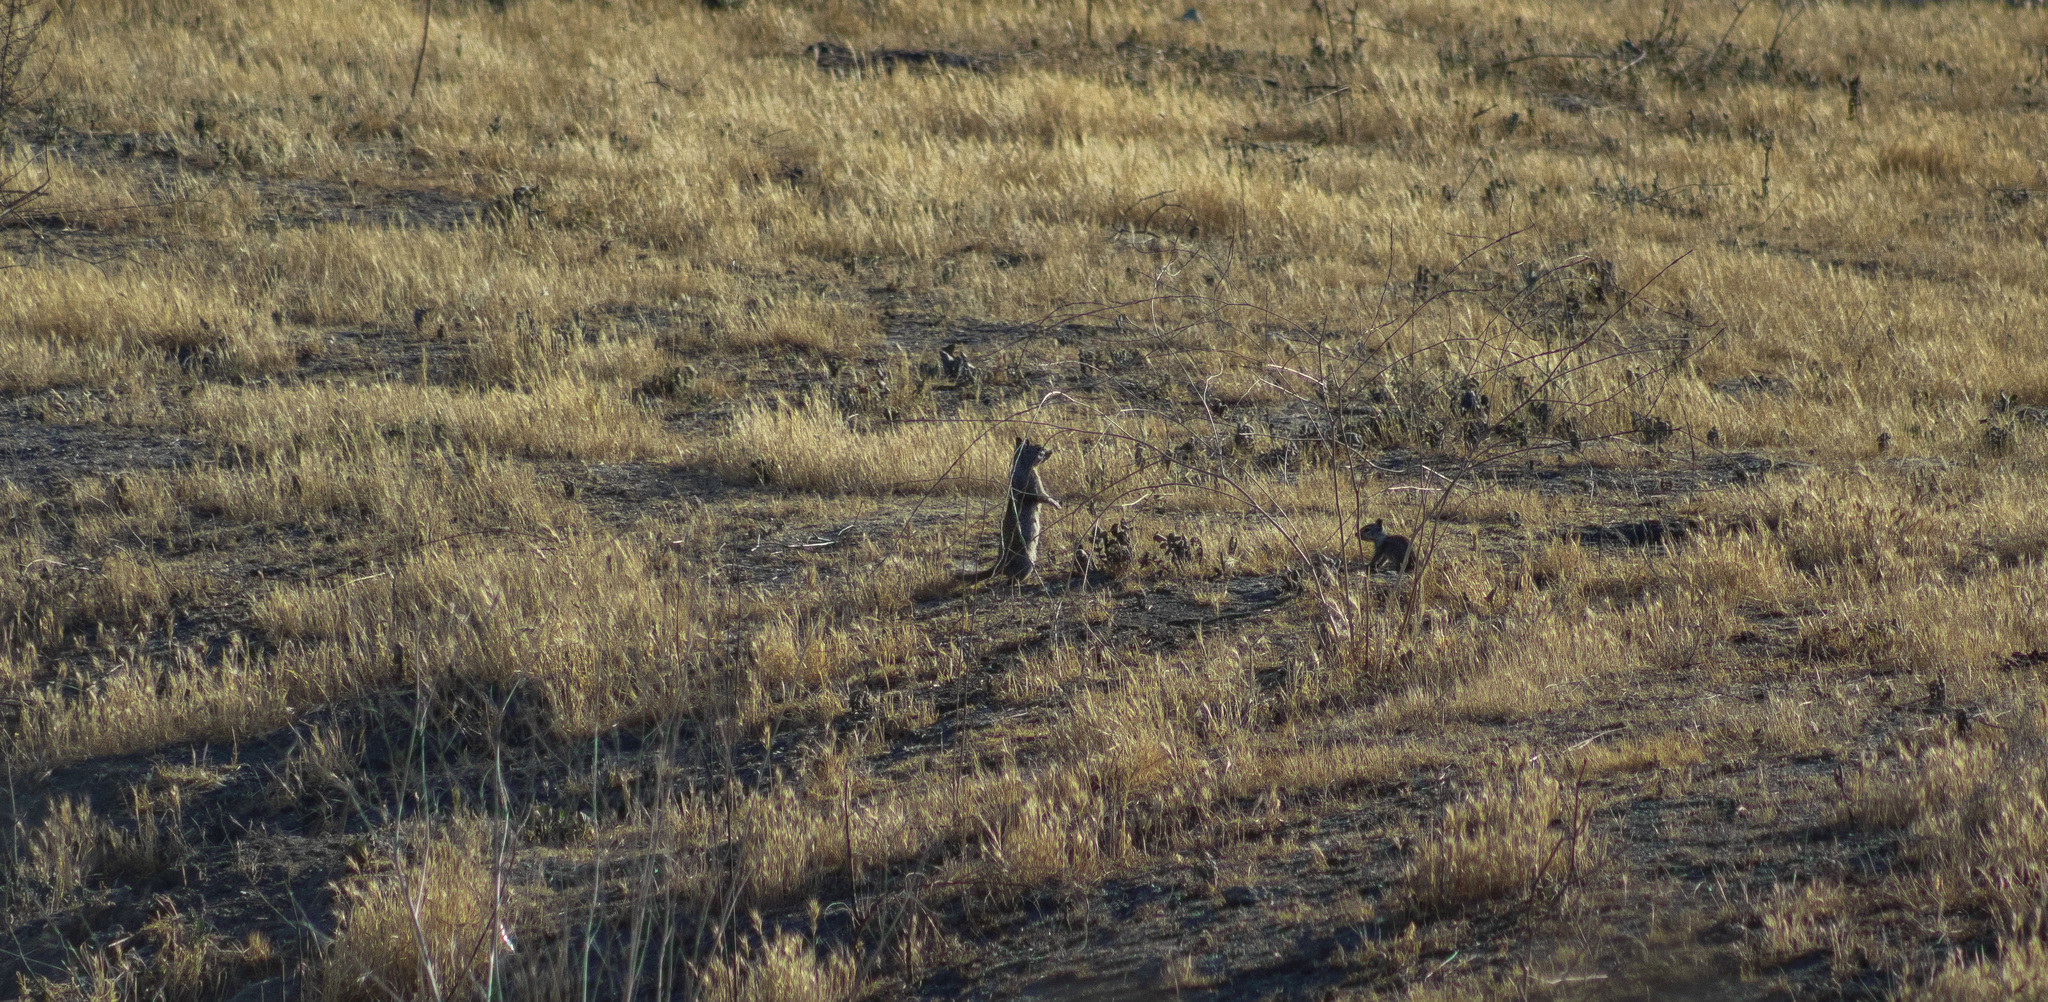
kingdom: Animalia
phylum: Chordata
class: Mammalia
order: Rodentia
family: Sciuridae
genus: Otospermophilus
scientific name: Otospermophilus beecheyi
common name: California ground squirrel
